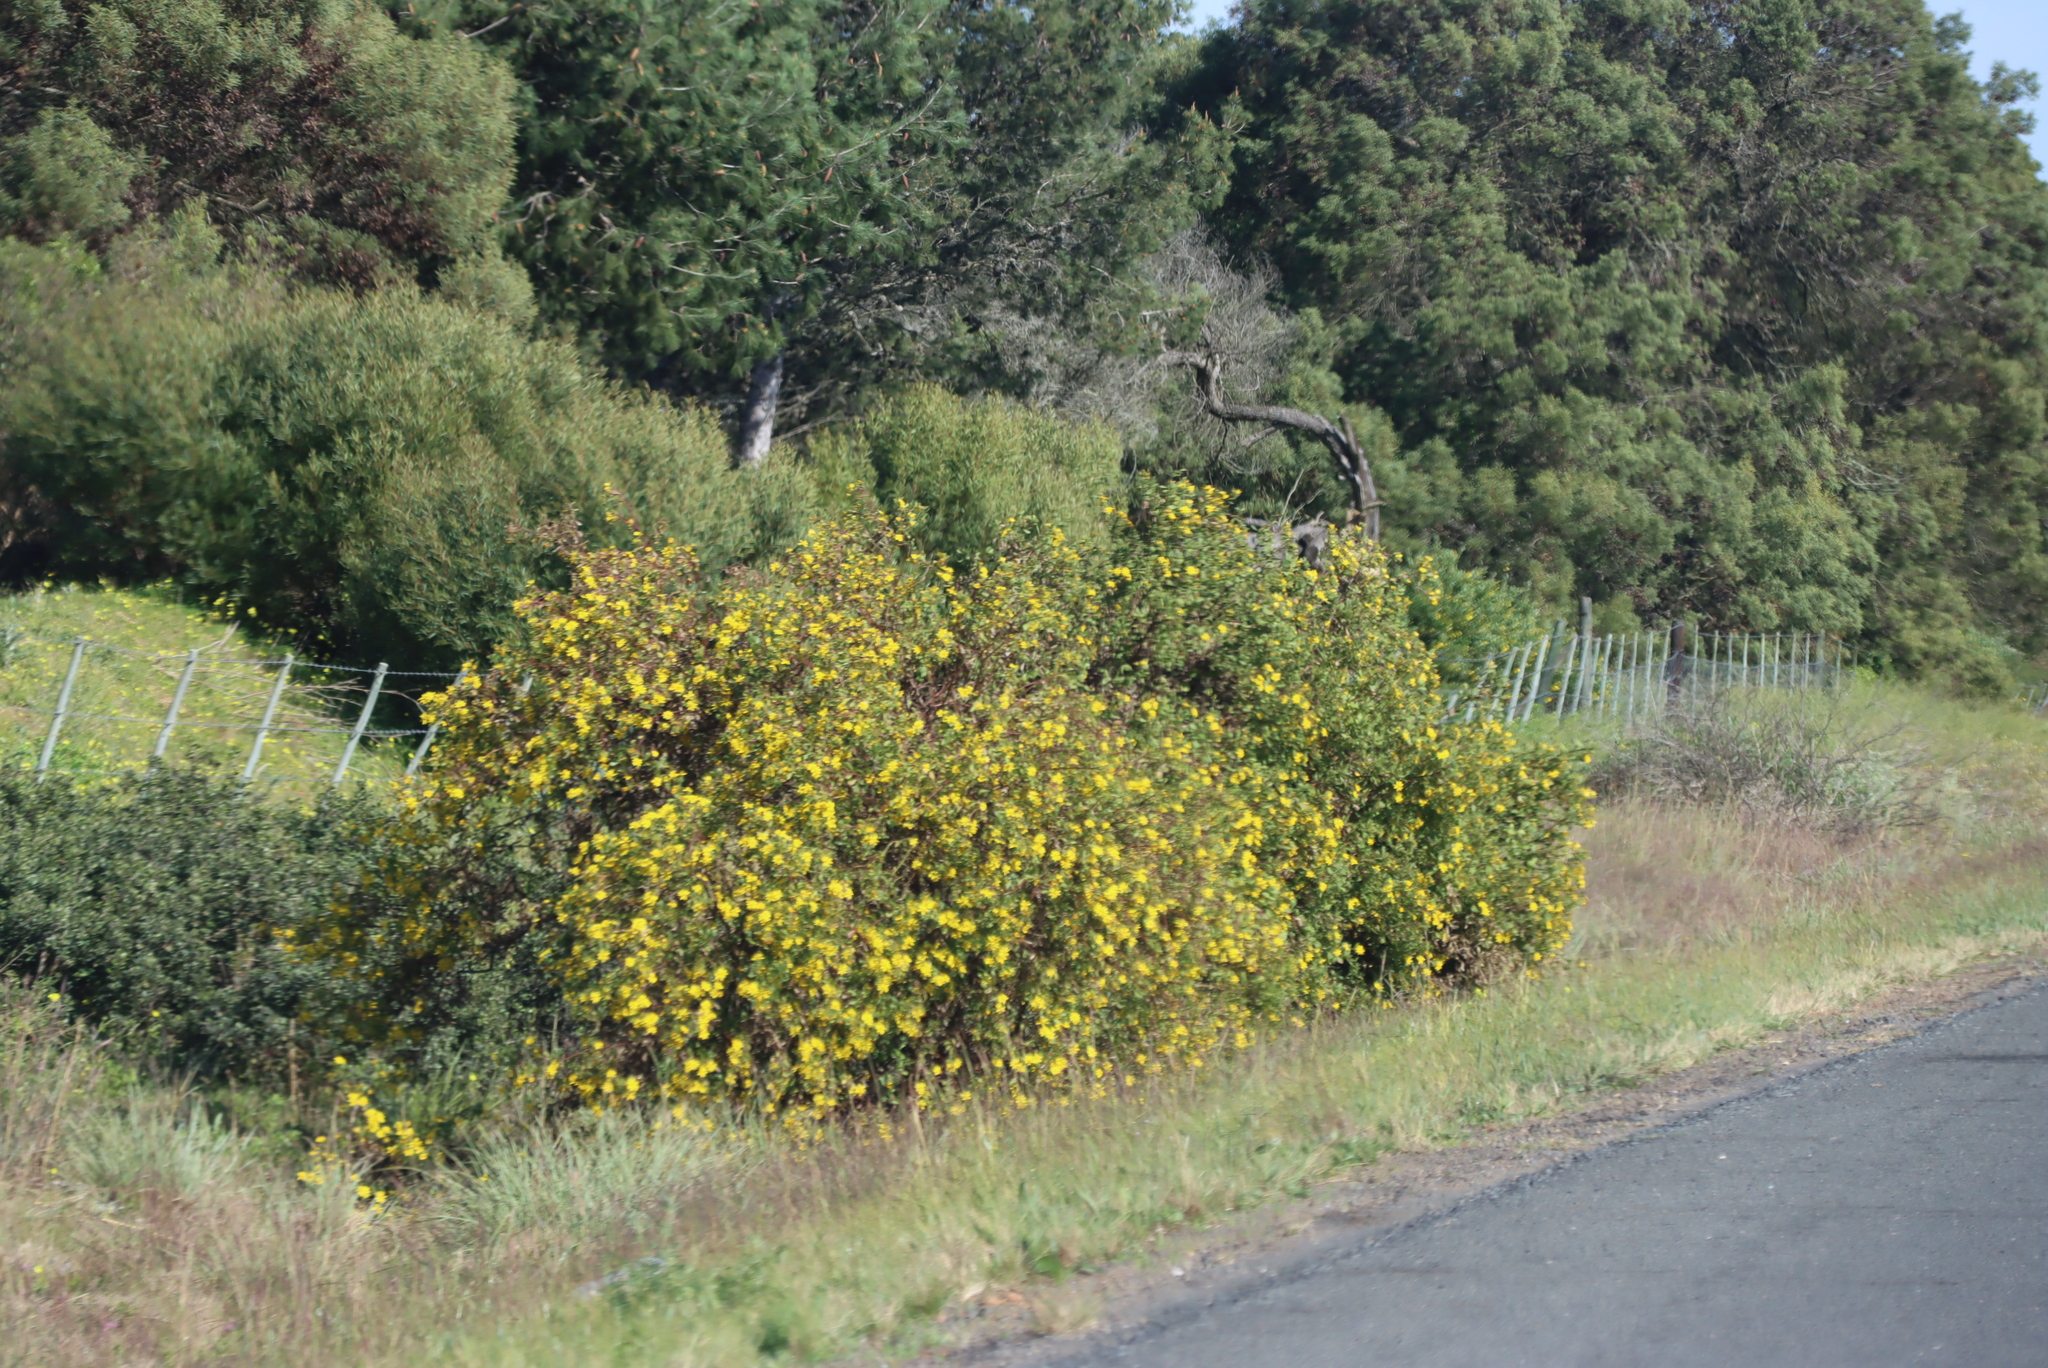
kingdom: Plantae
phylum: Tracheophyta
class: Magnoliopsida
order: Asterales
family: Asteraceae
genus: Osteospermum
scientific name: Osteospermum moniliferum
